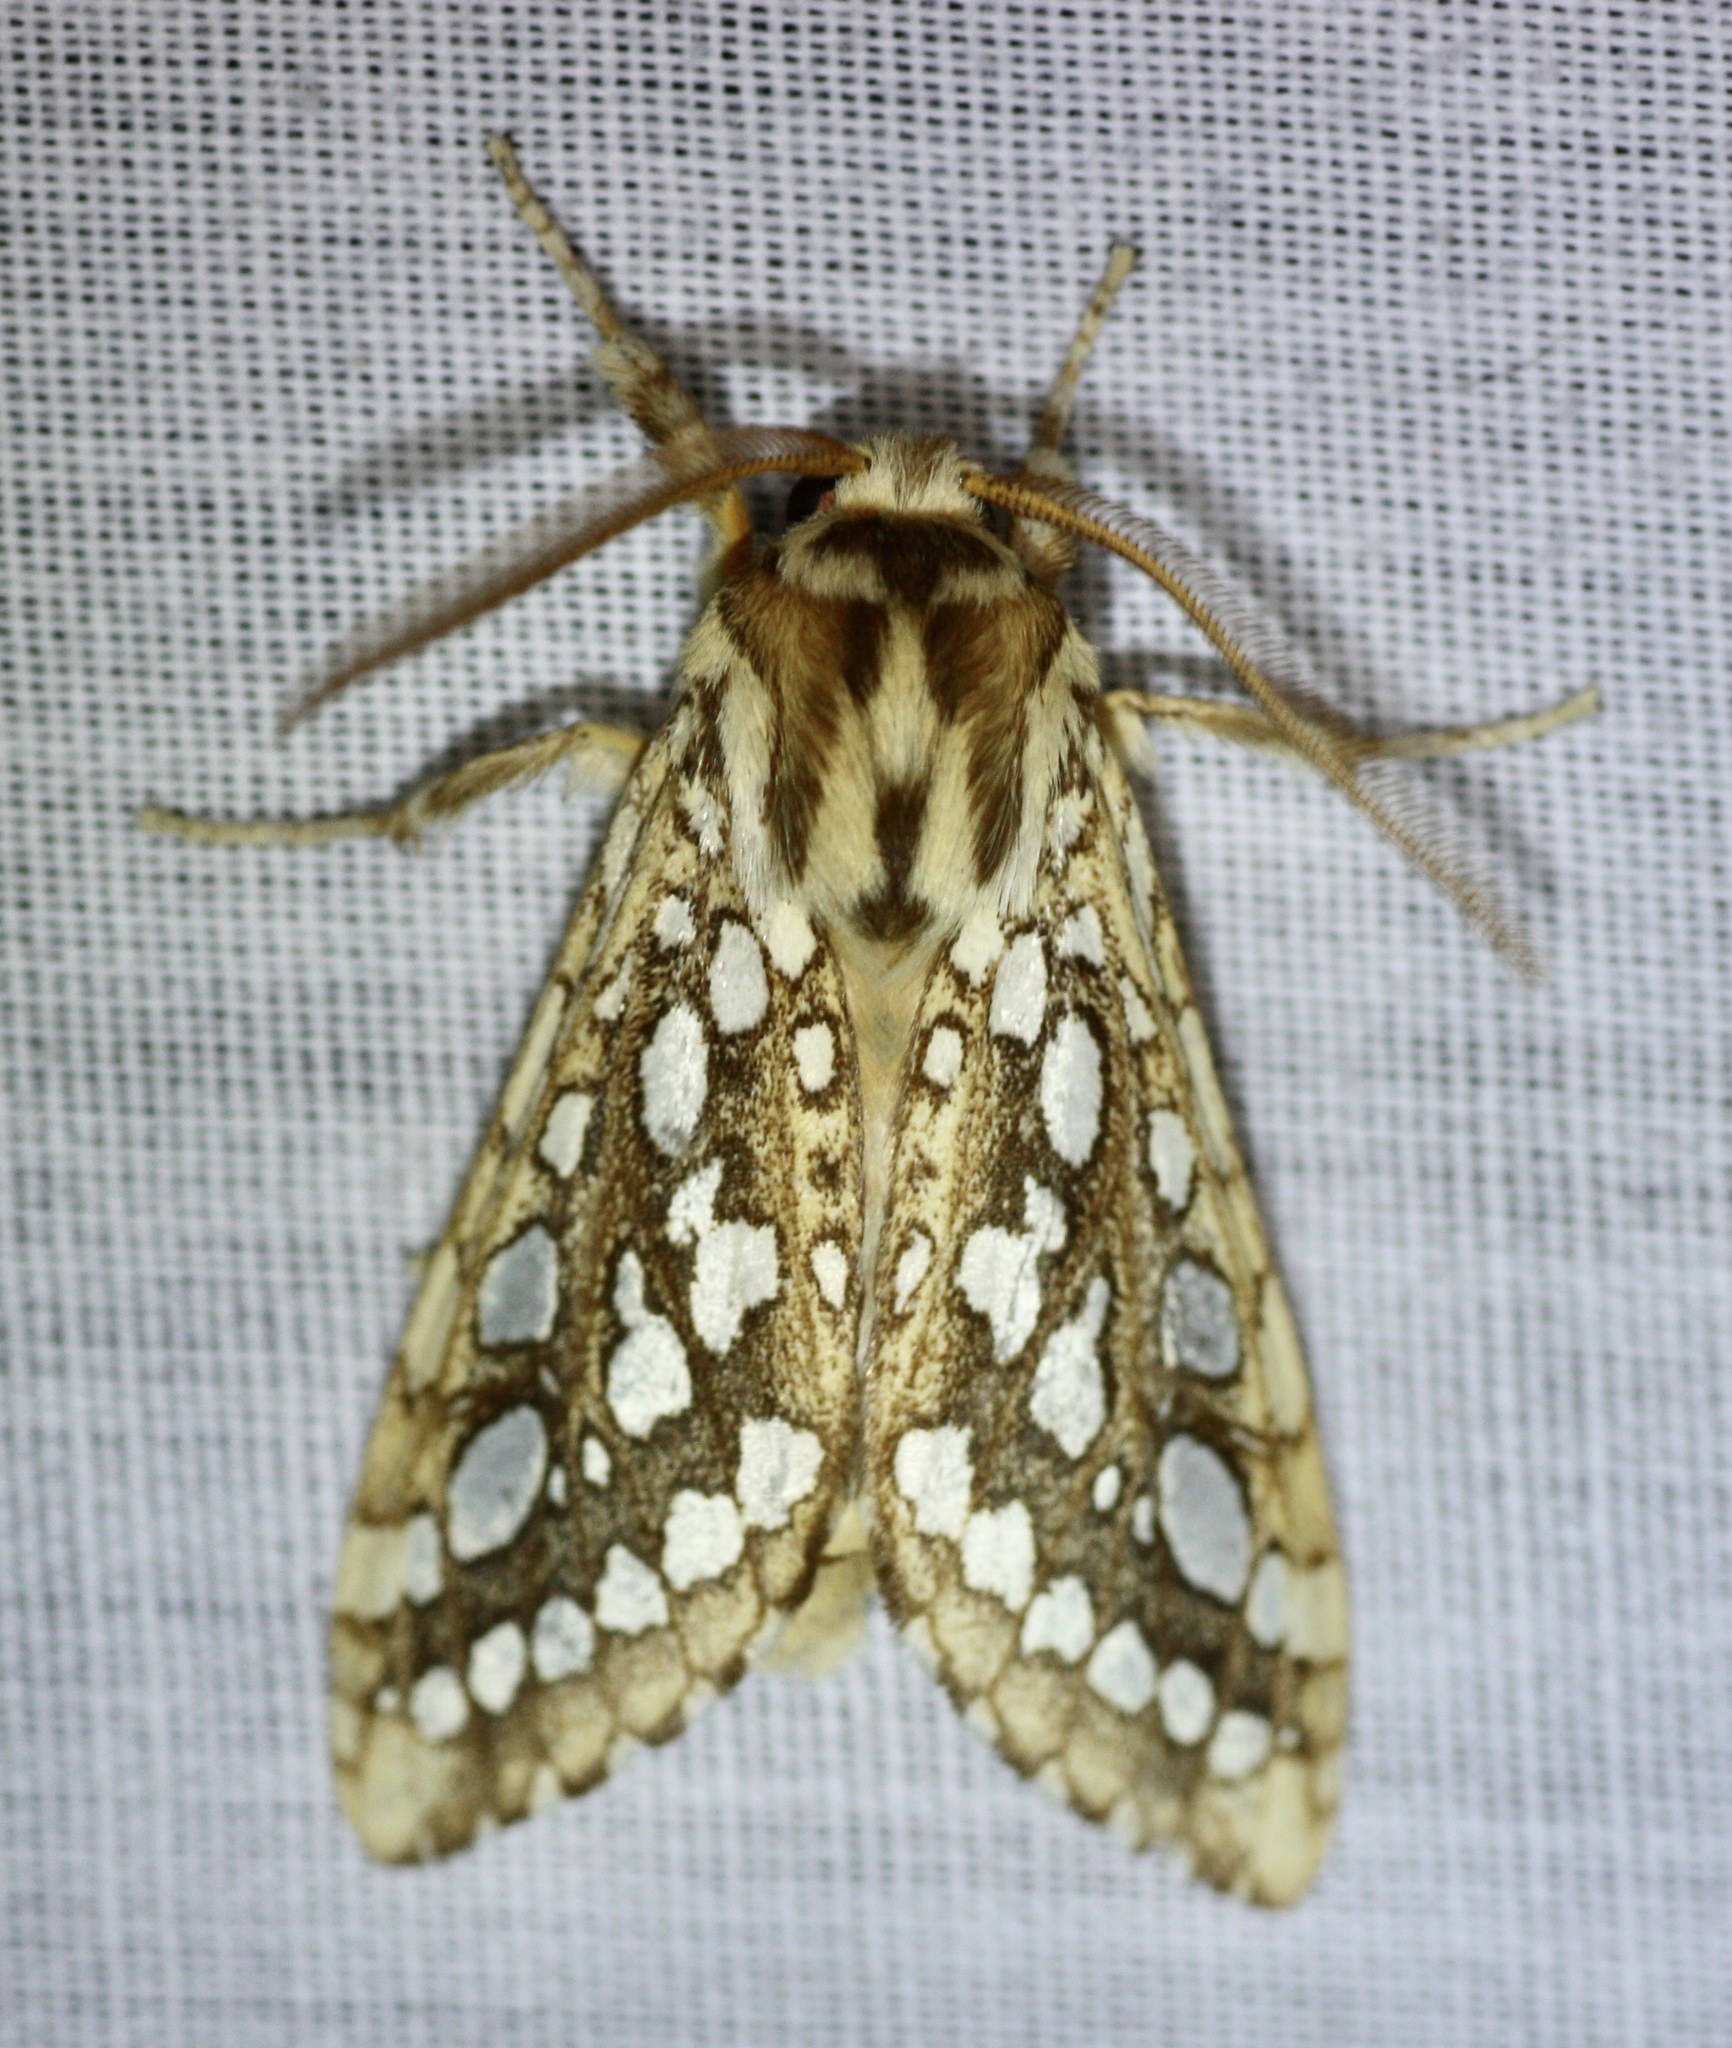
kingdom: Animalia
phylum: Arthropoda
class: Insecta
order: Lepidoptera
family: Erebidae
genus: Lophocampa
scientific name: Lophocampa argentata
